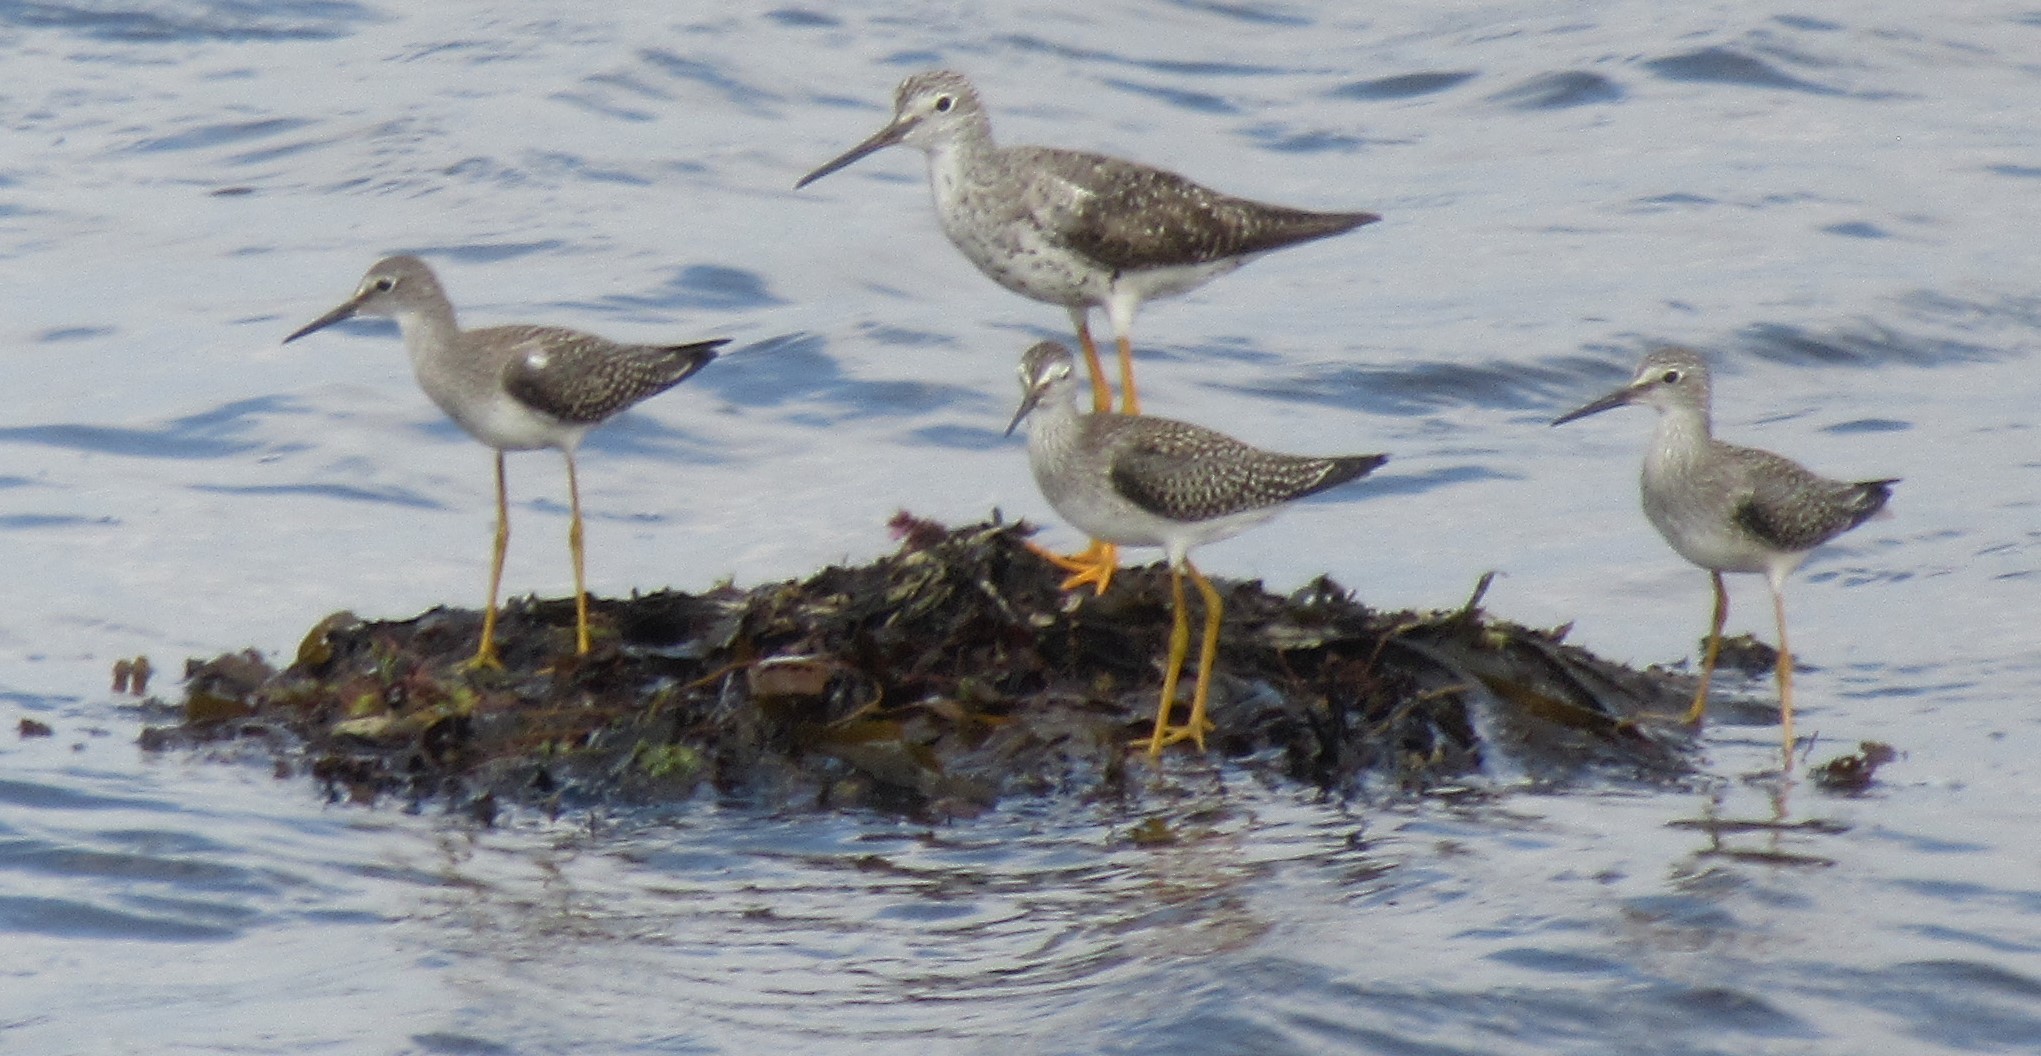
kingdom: Animalia
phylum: Chordata
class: Aves
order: Charadriiformes
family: Scolopacidae
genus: Tringa
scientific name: Tringa flavipes
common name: Lesser yellowlegs
